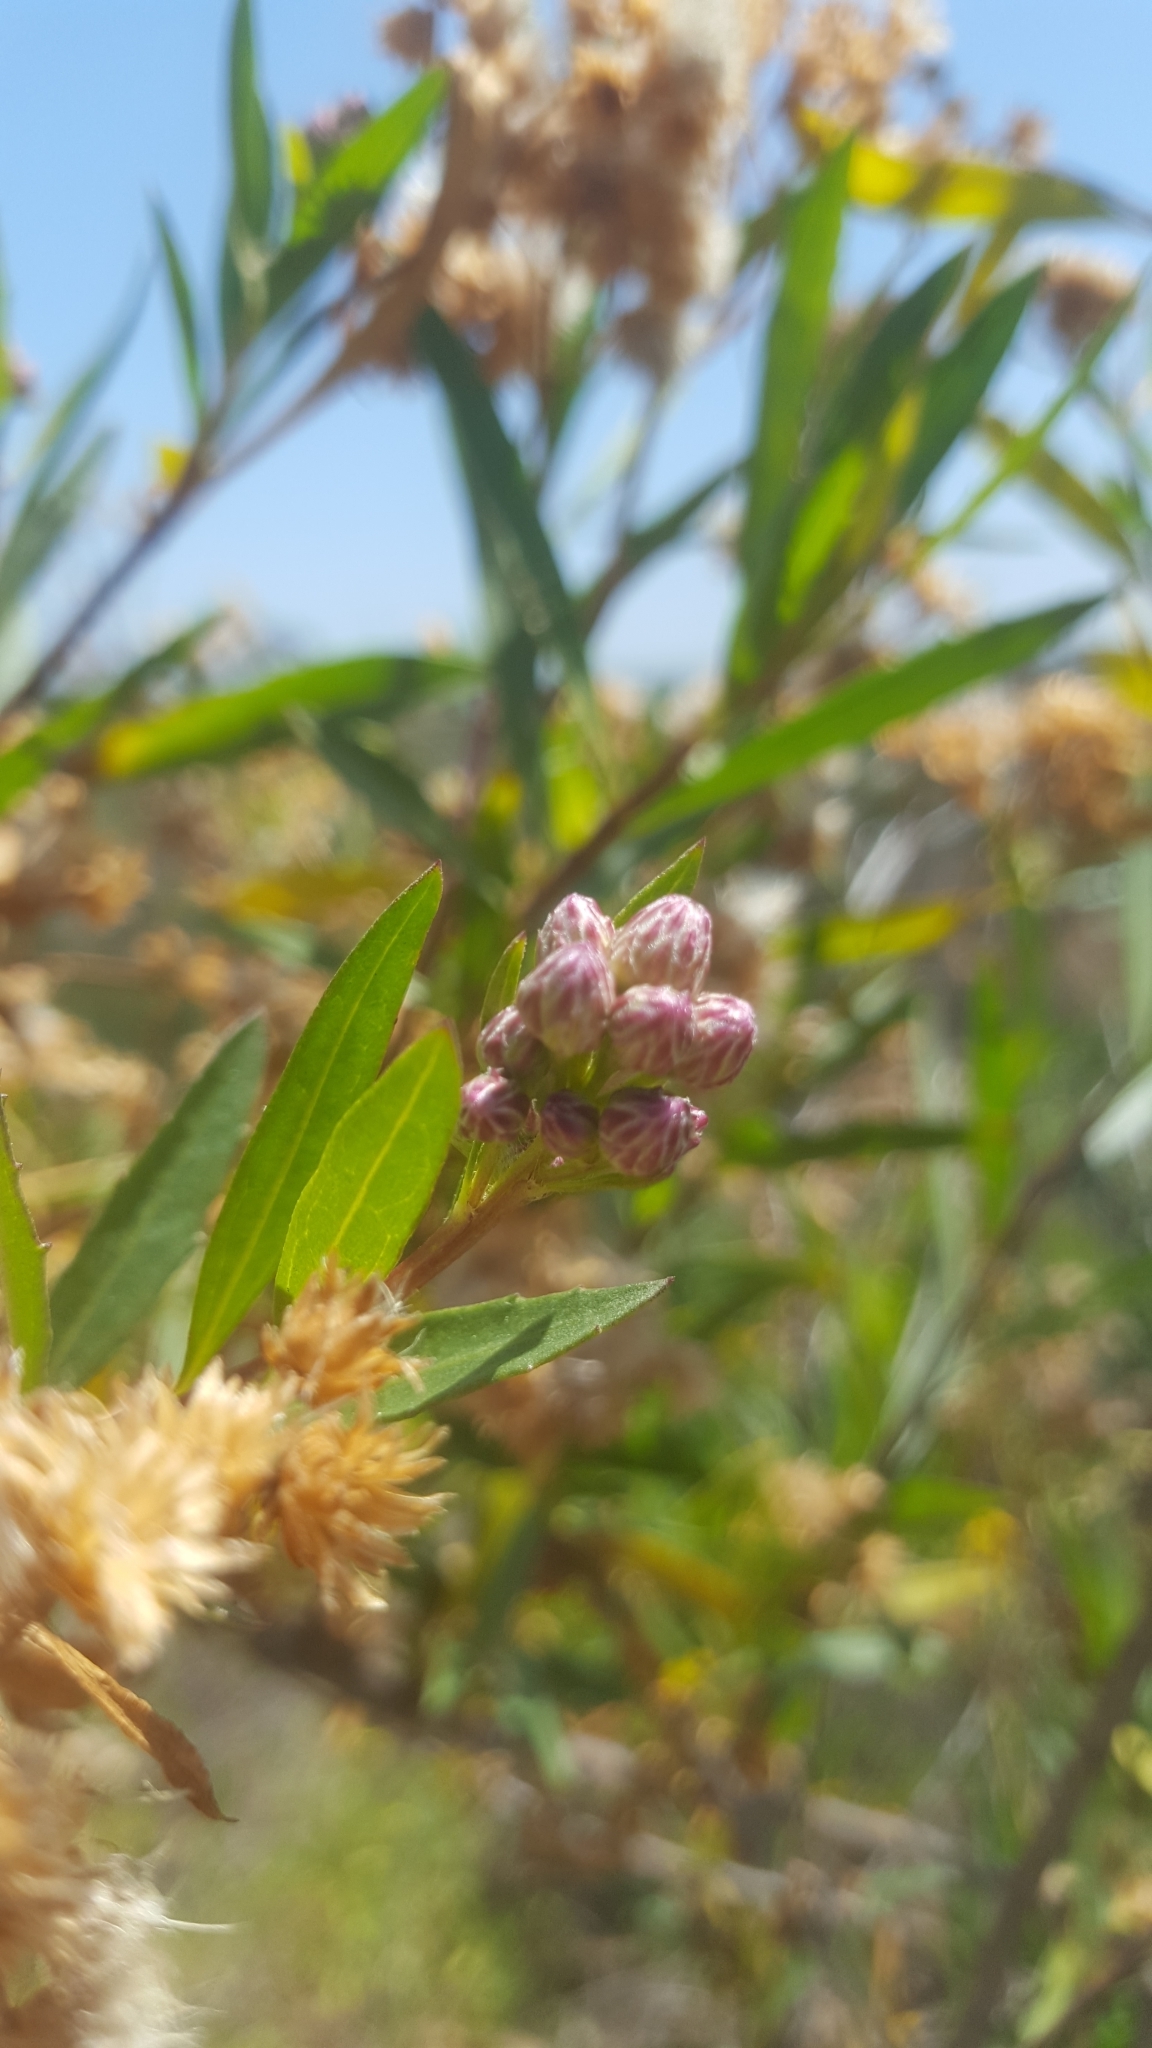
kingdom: Plantae
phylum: Tracheophyta
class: Magnoliopsida
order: Asterales
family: Asteraceae
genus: Baccharis
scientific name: Baccharis salicifolia
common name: Sticky baccharis
